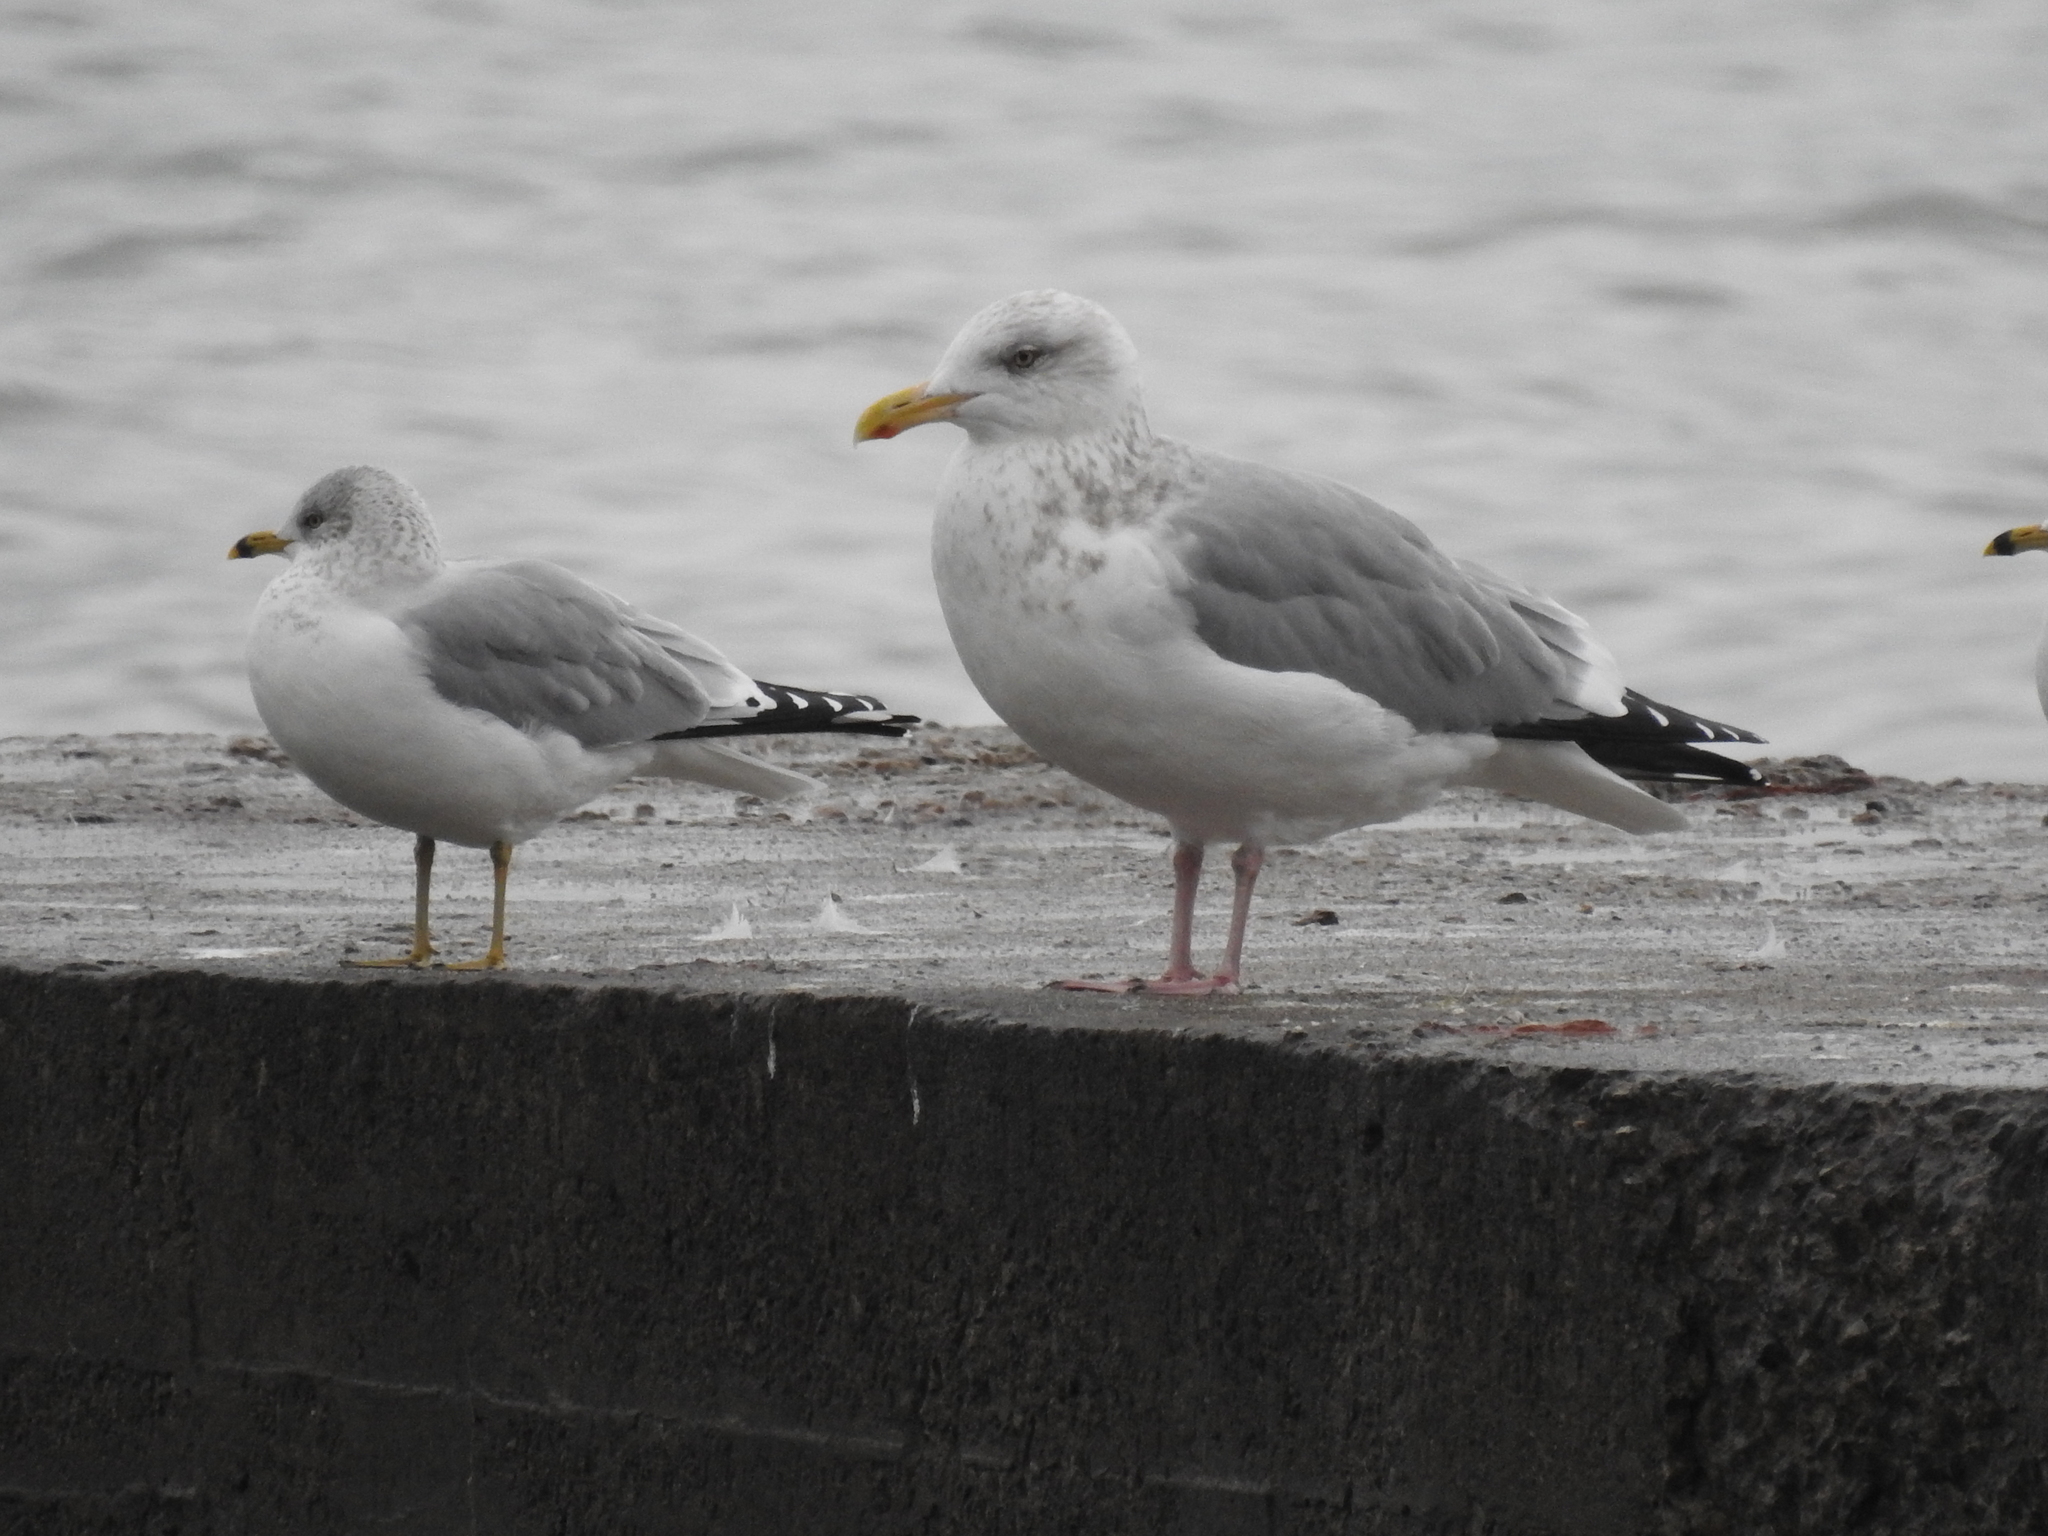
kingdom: Animalia
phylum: Chordata
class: Aves
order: Charadriiformes
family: Laridae
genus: Larus
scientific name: Larus argentatus
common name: Herring gull
